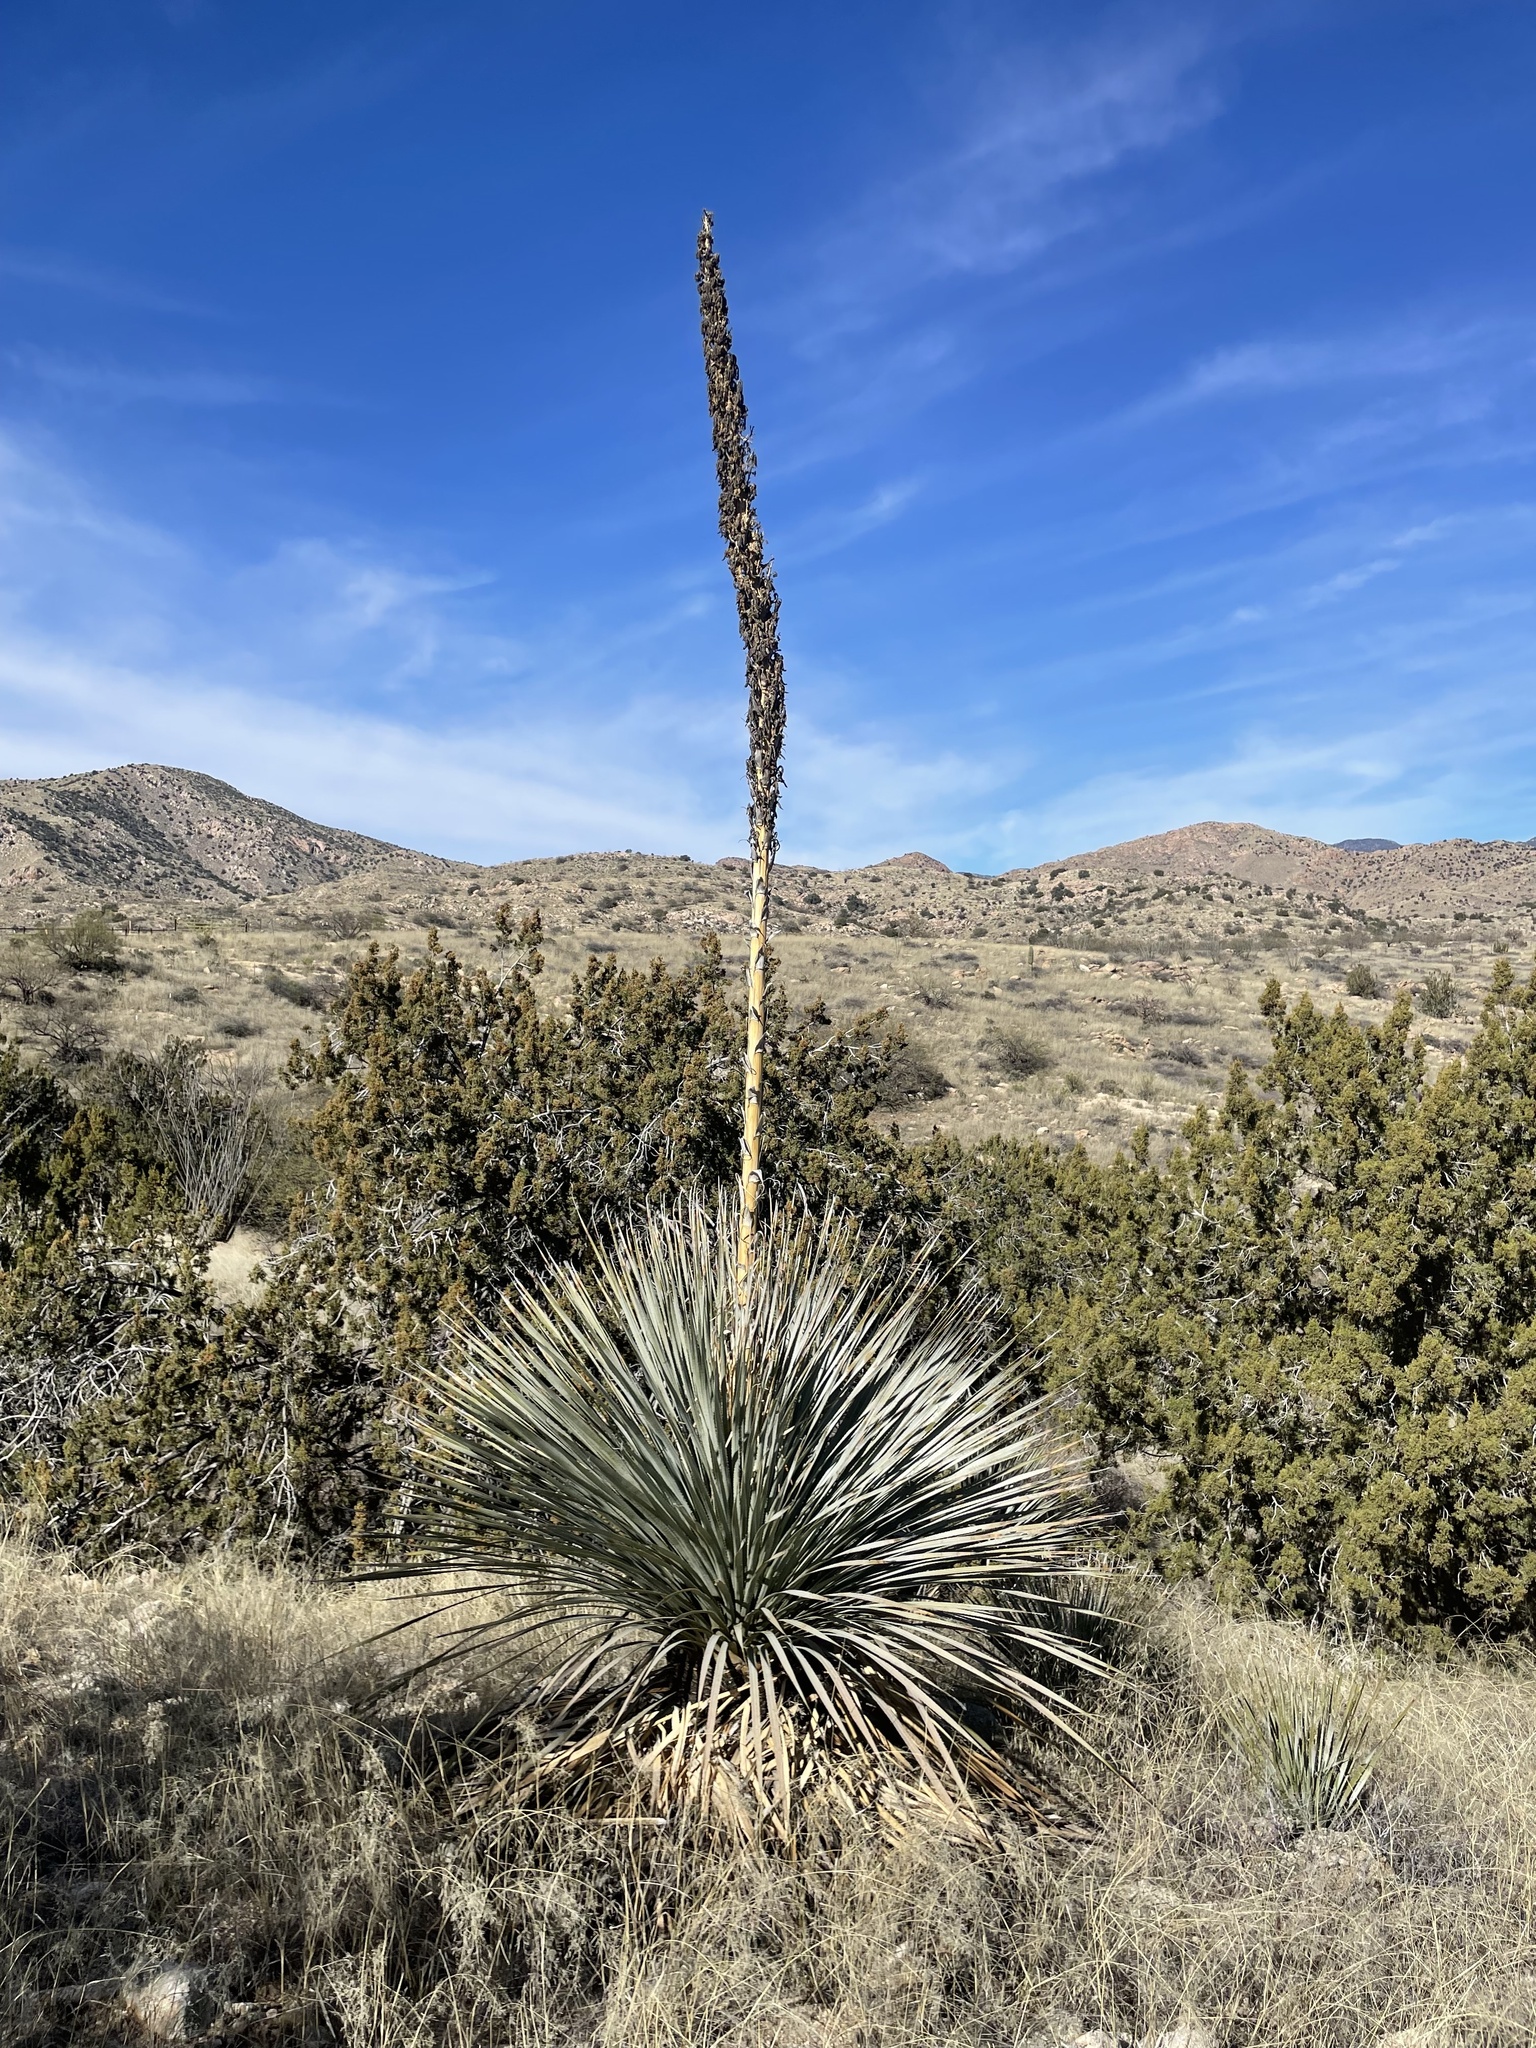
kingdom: Plantae
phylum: Tracheophyta
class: Liliopsida
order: Asparagales
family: Asparagaceae
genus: Dasylirion
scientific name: Dasylirion wheeleri
